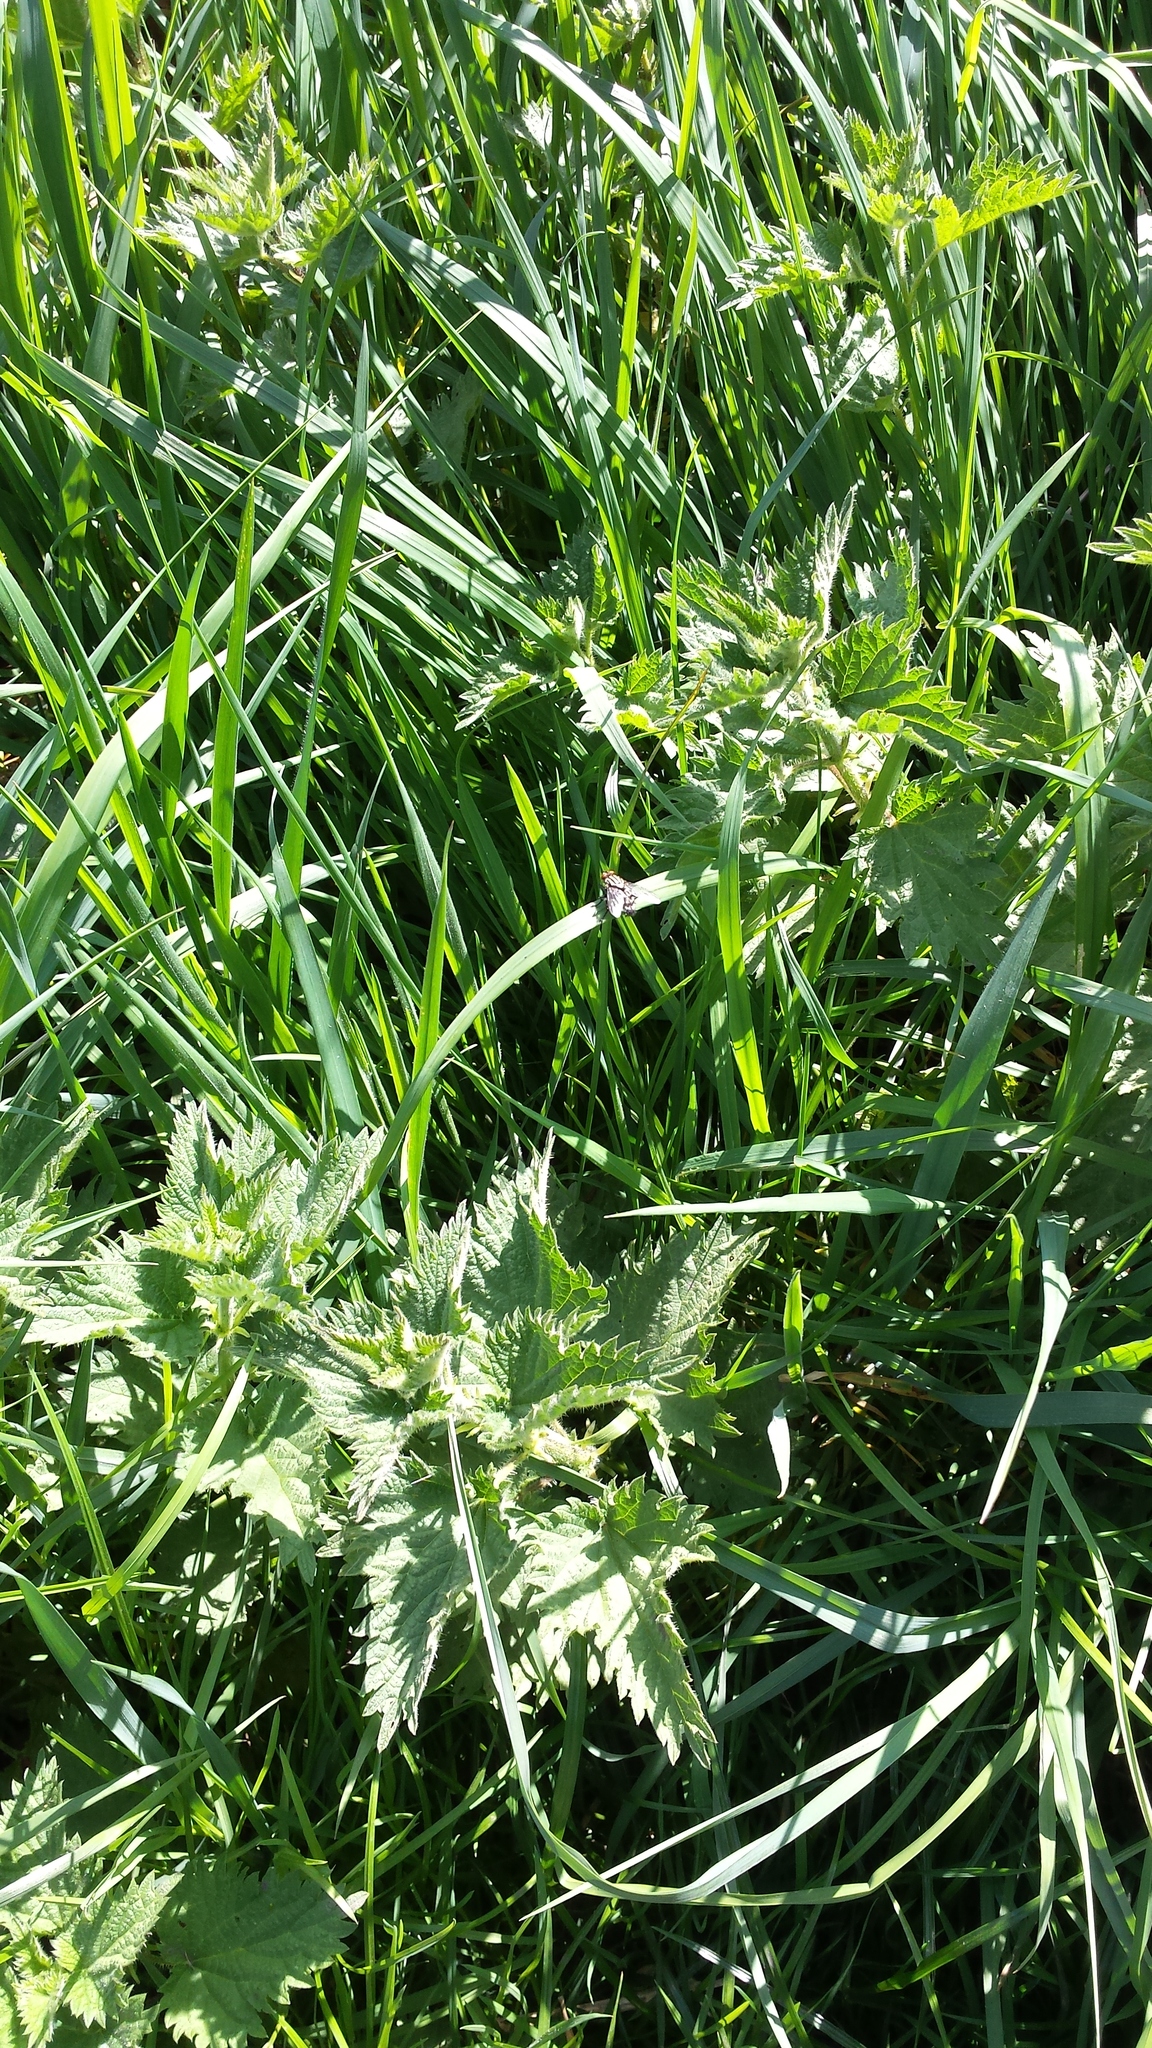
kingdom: Plantae
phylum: Tracheophyta
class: Magnoliopsida
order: Rosales
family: Urticaceae
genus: Urtica
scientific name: Urtica dioica
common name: Common nettle
